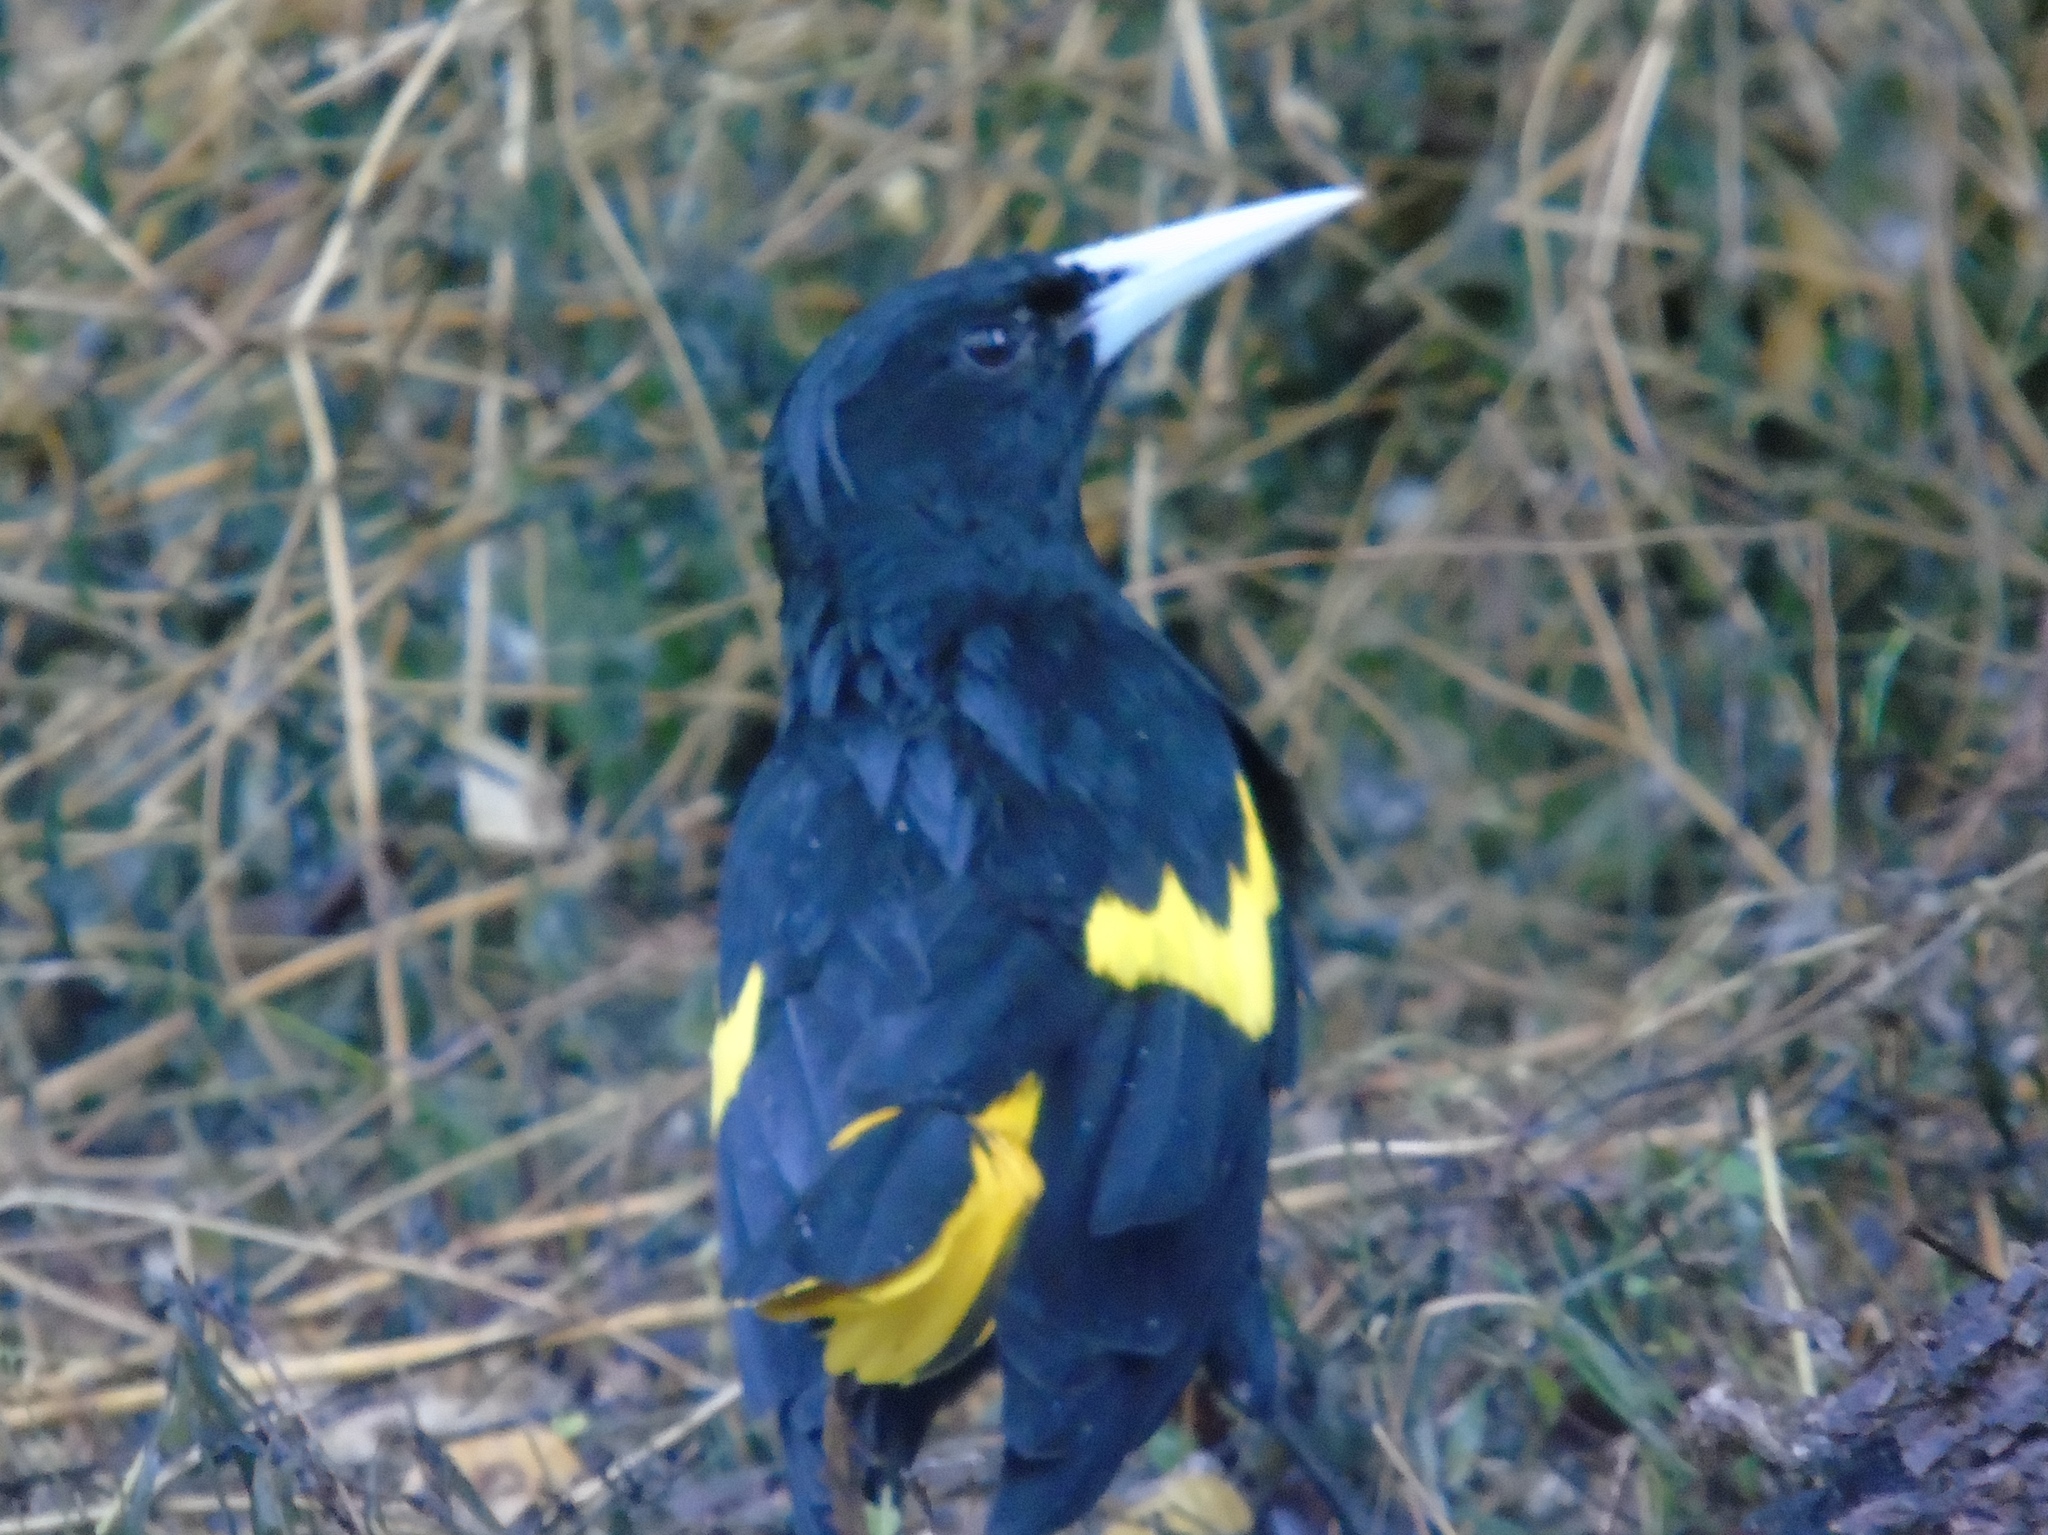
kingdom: Animalia
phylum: Chordata
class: Aves
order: Passeriformes
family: Icteridae
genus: Cacicus
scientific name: Cacicus melanicterus
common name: Yellow-winged cacique
